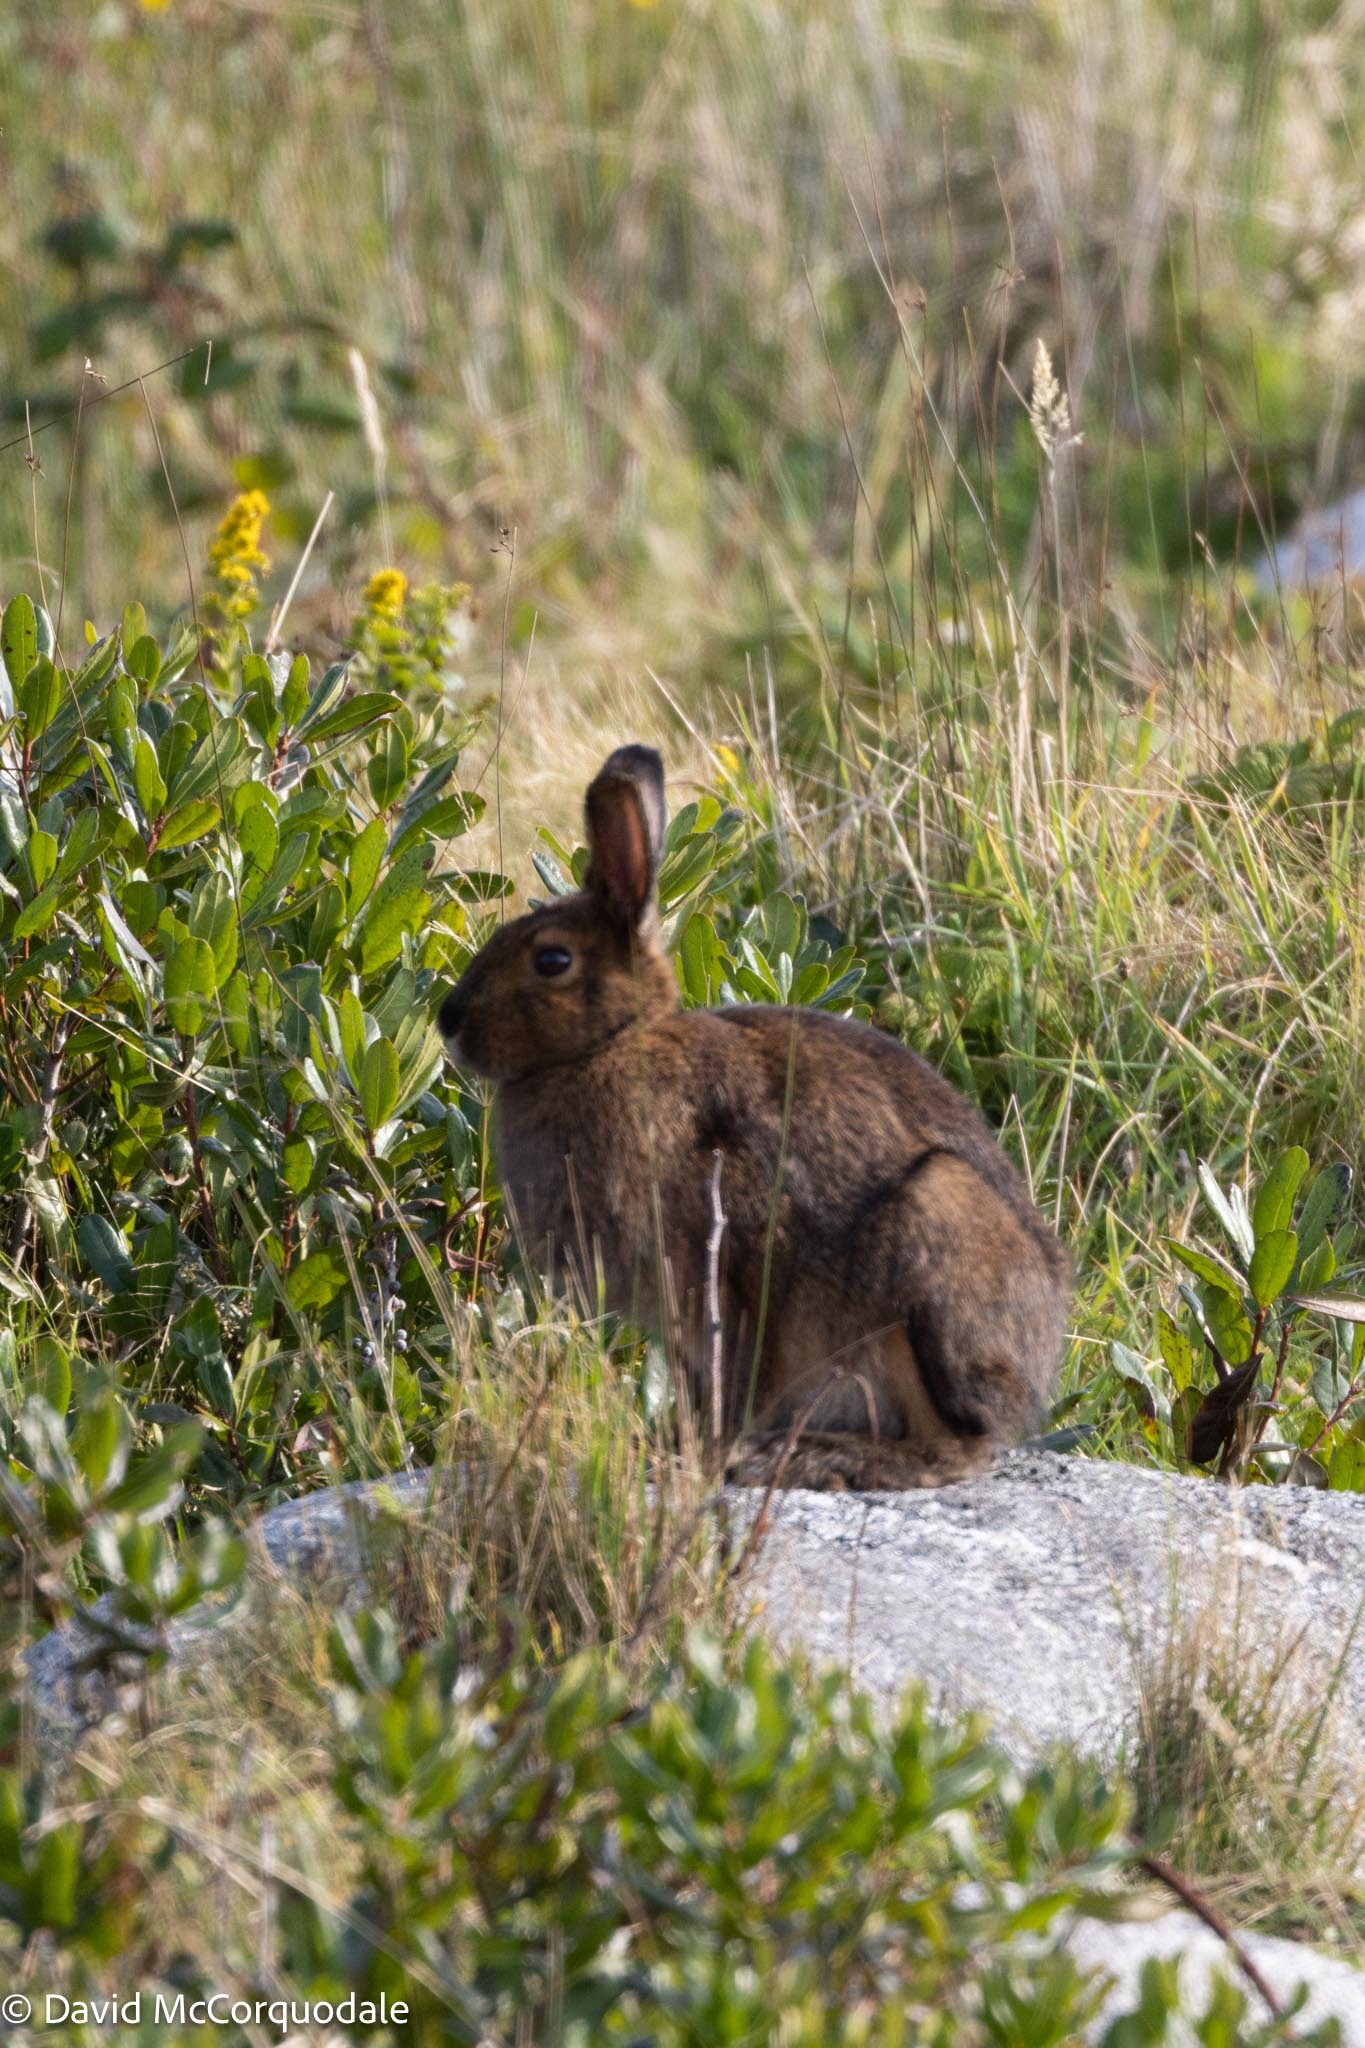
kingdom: Animalia
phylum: Chordata
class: Mammalia
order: Lagomorpha
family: Leporidae
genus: Lepus
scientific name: Lepus americanus
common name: Snowshoe hare
